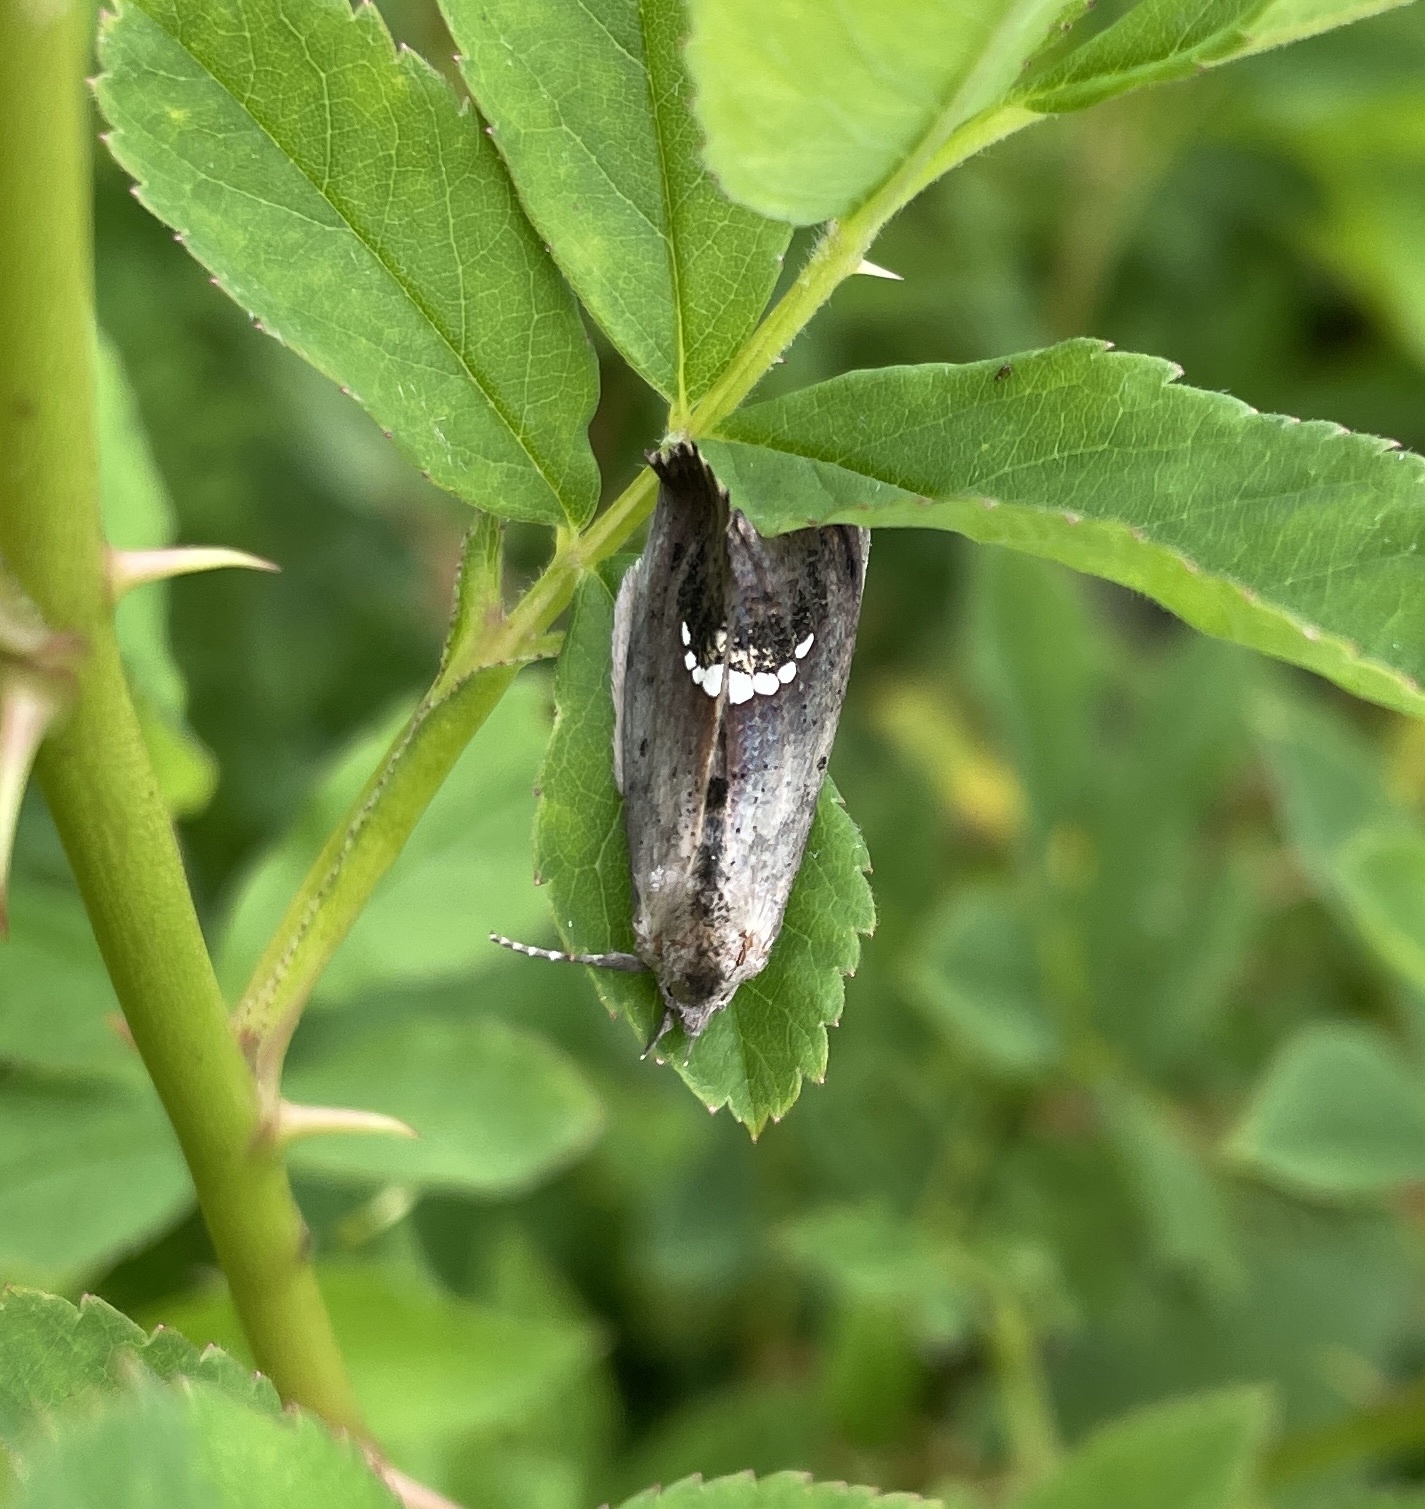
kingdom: Animalia
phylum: Arthropoda
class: Insecta
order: Lepidoptera
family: Erebidae
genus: Hypsoropha
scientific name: Hypsoropha hormos
